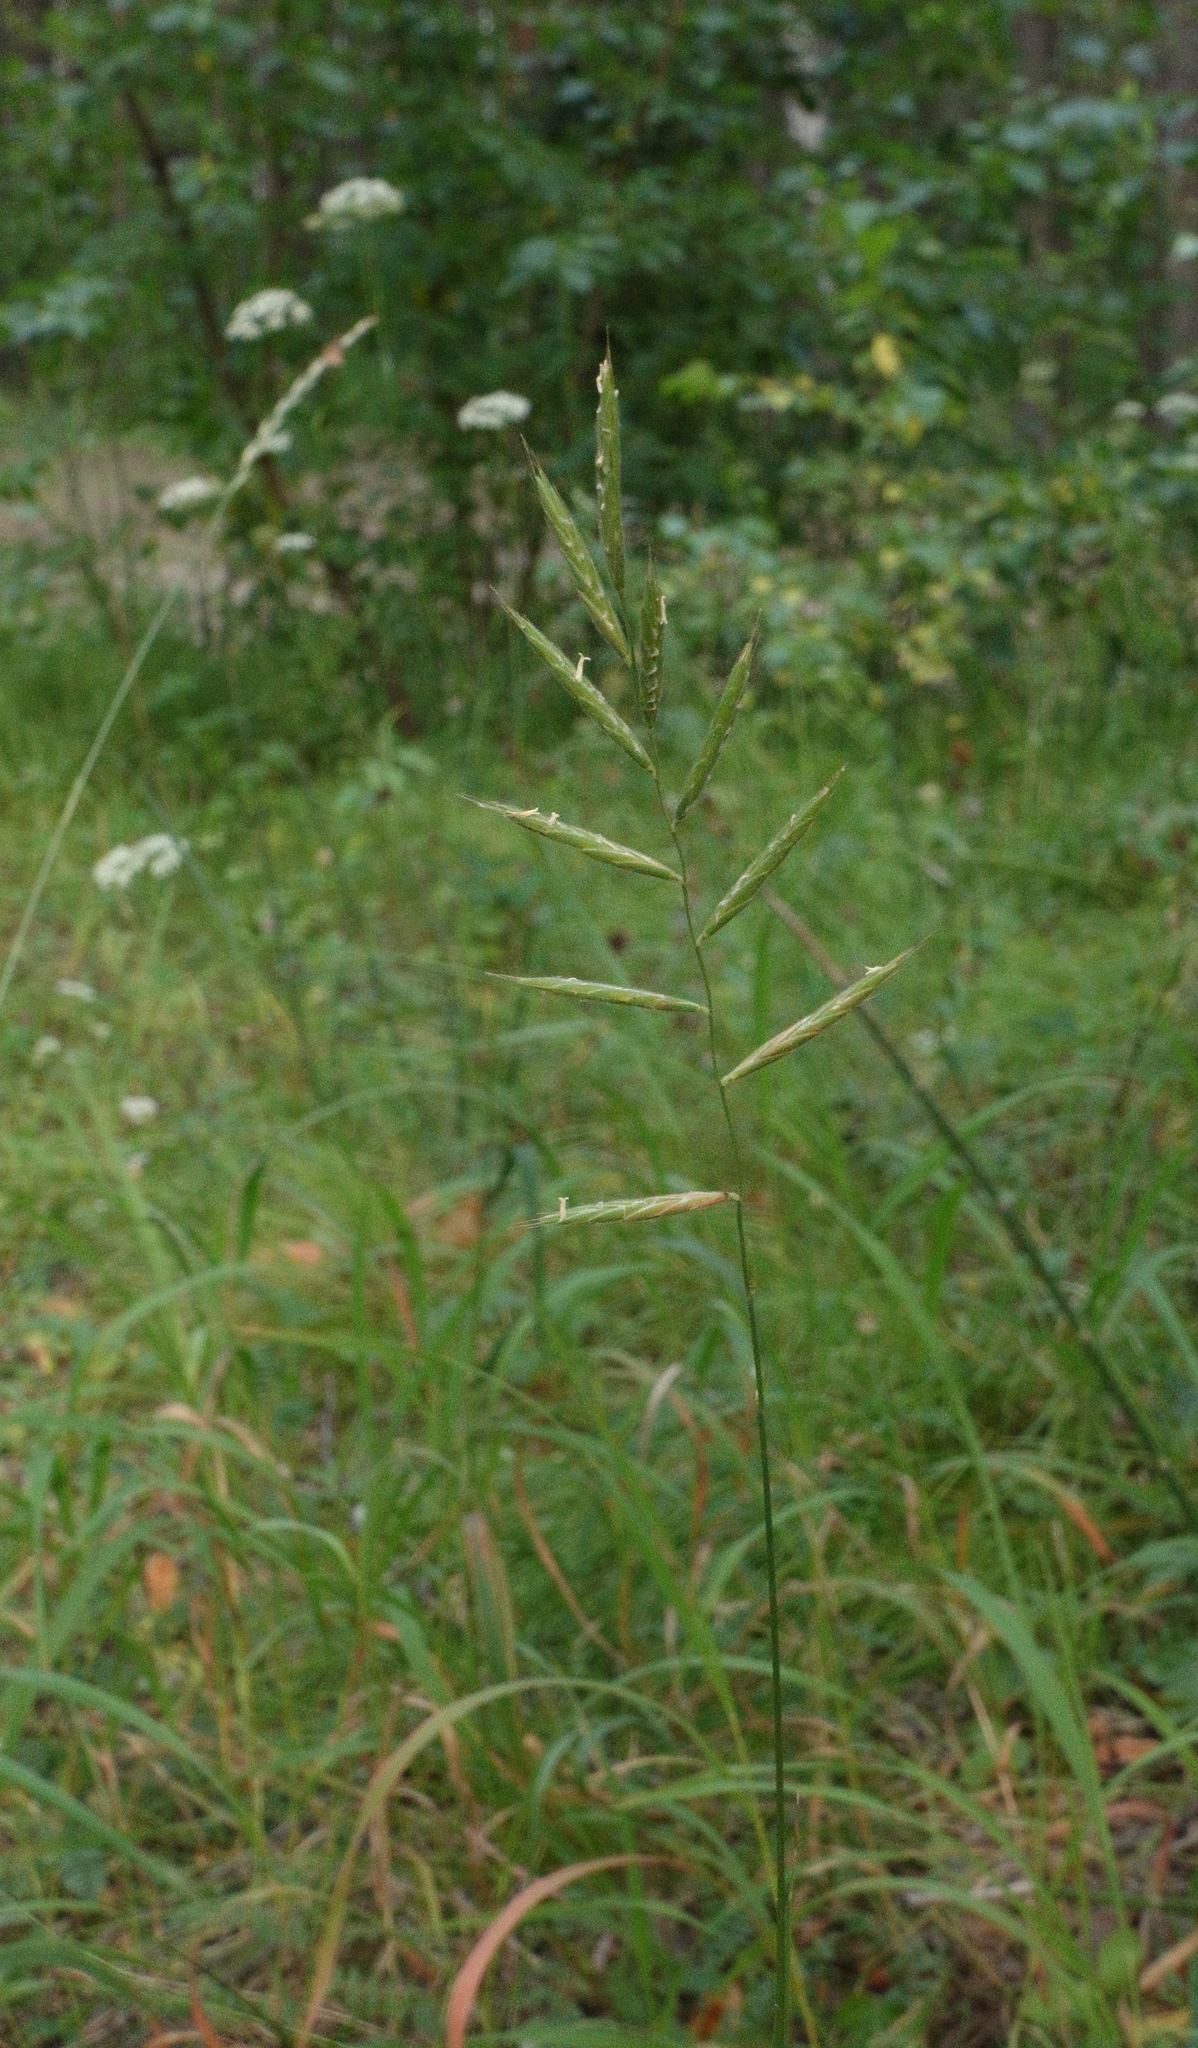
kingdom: Plantae
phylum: Tracheophyta
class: Liliopsida
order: Poales
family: Poaceae
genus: Brachypodium
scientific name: Brachypodium pinnatum
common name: Tor grass
